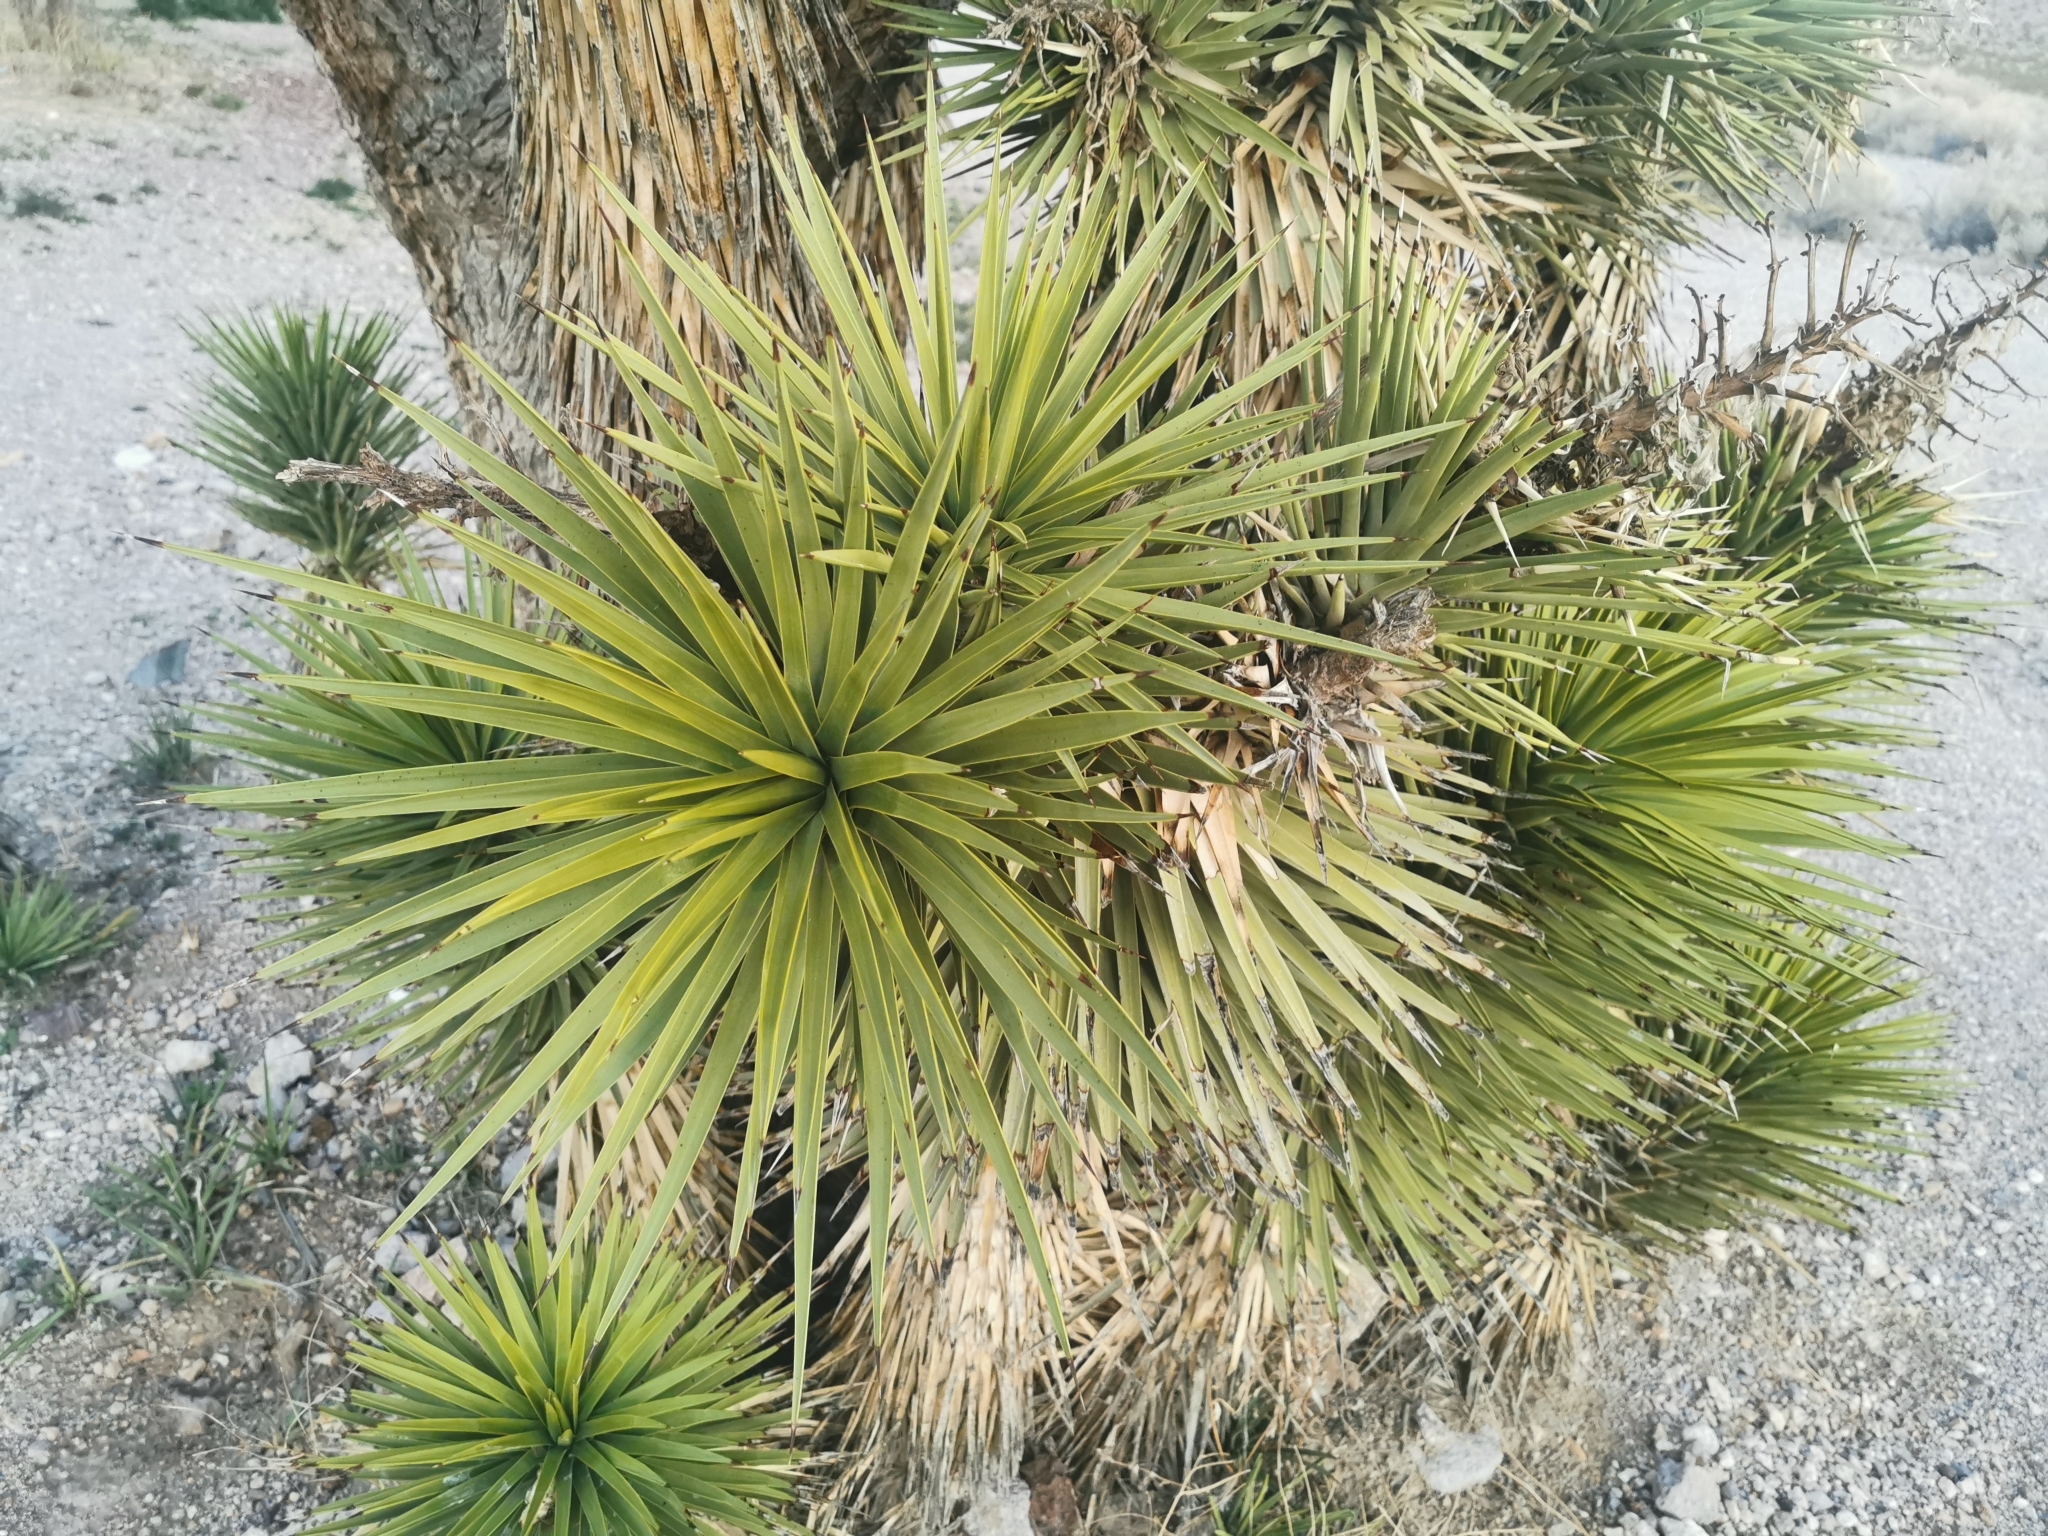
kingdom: Plantae
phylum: Tracheophyta
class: Liliopsida
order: Asparagales
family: Asparagaceae
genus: Yucca
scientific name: Yucca brevifolia
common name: Joshua tree
